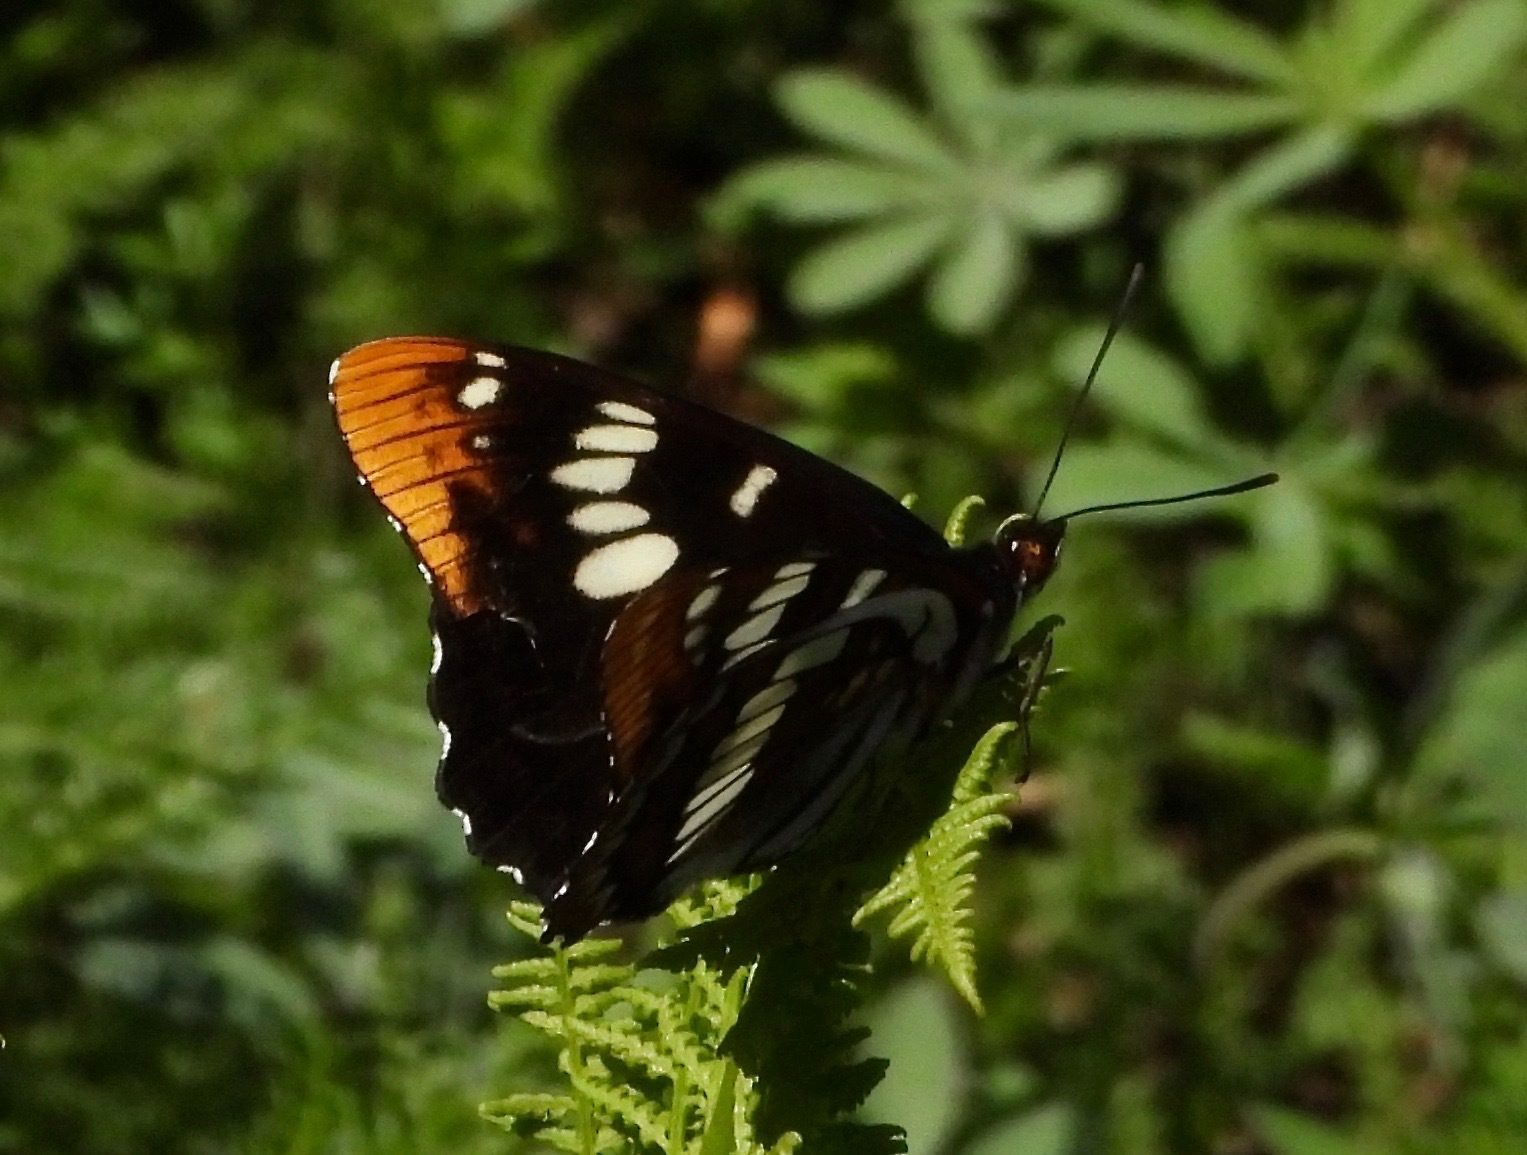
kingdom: Animalia
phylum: Arthropoda
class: Insecta
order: Lepidoptera
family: Nymphalidae
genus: Limenitis
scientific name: Limenitis lorquini
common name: Lorquin's admiral
